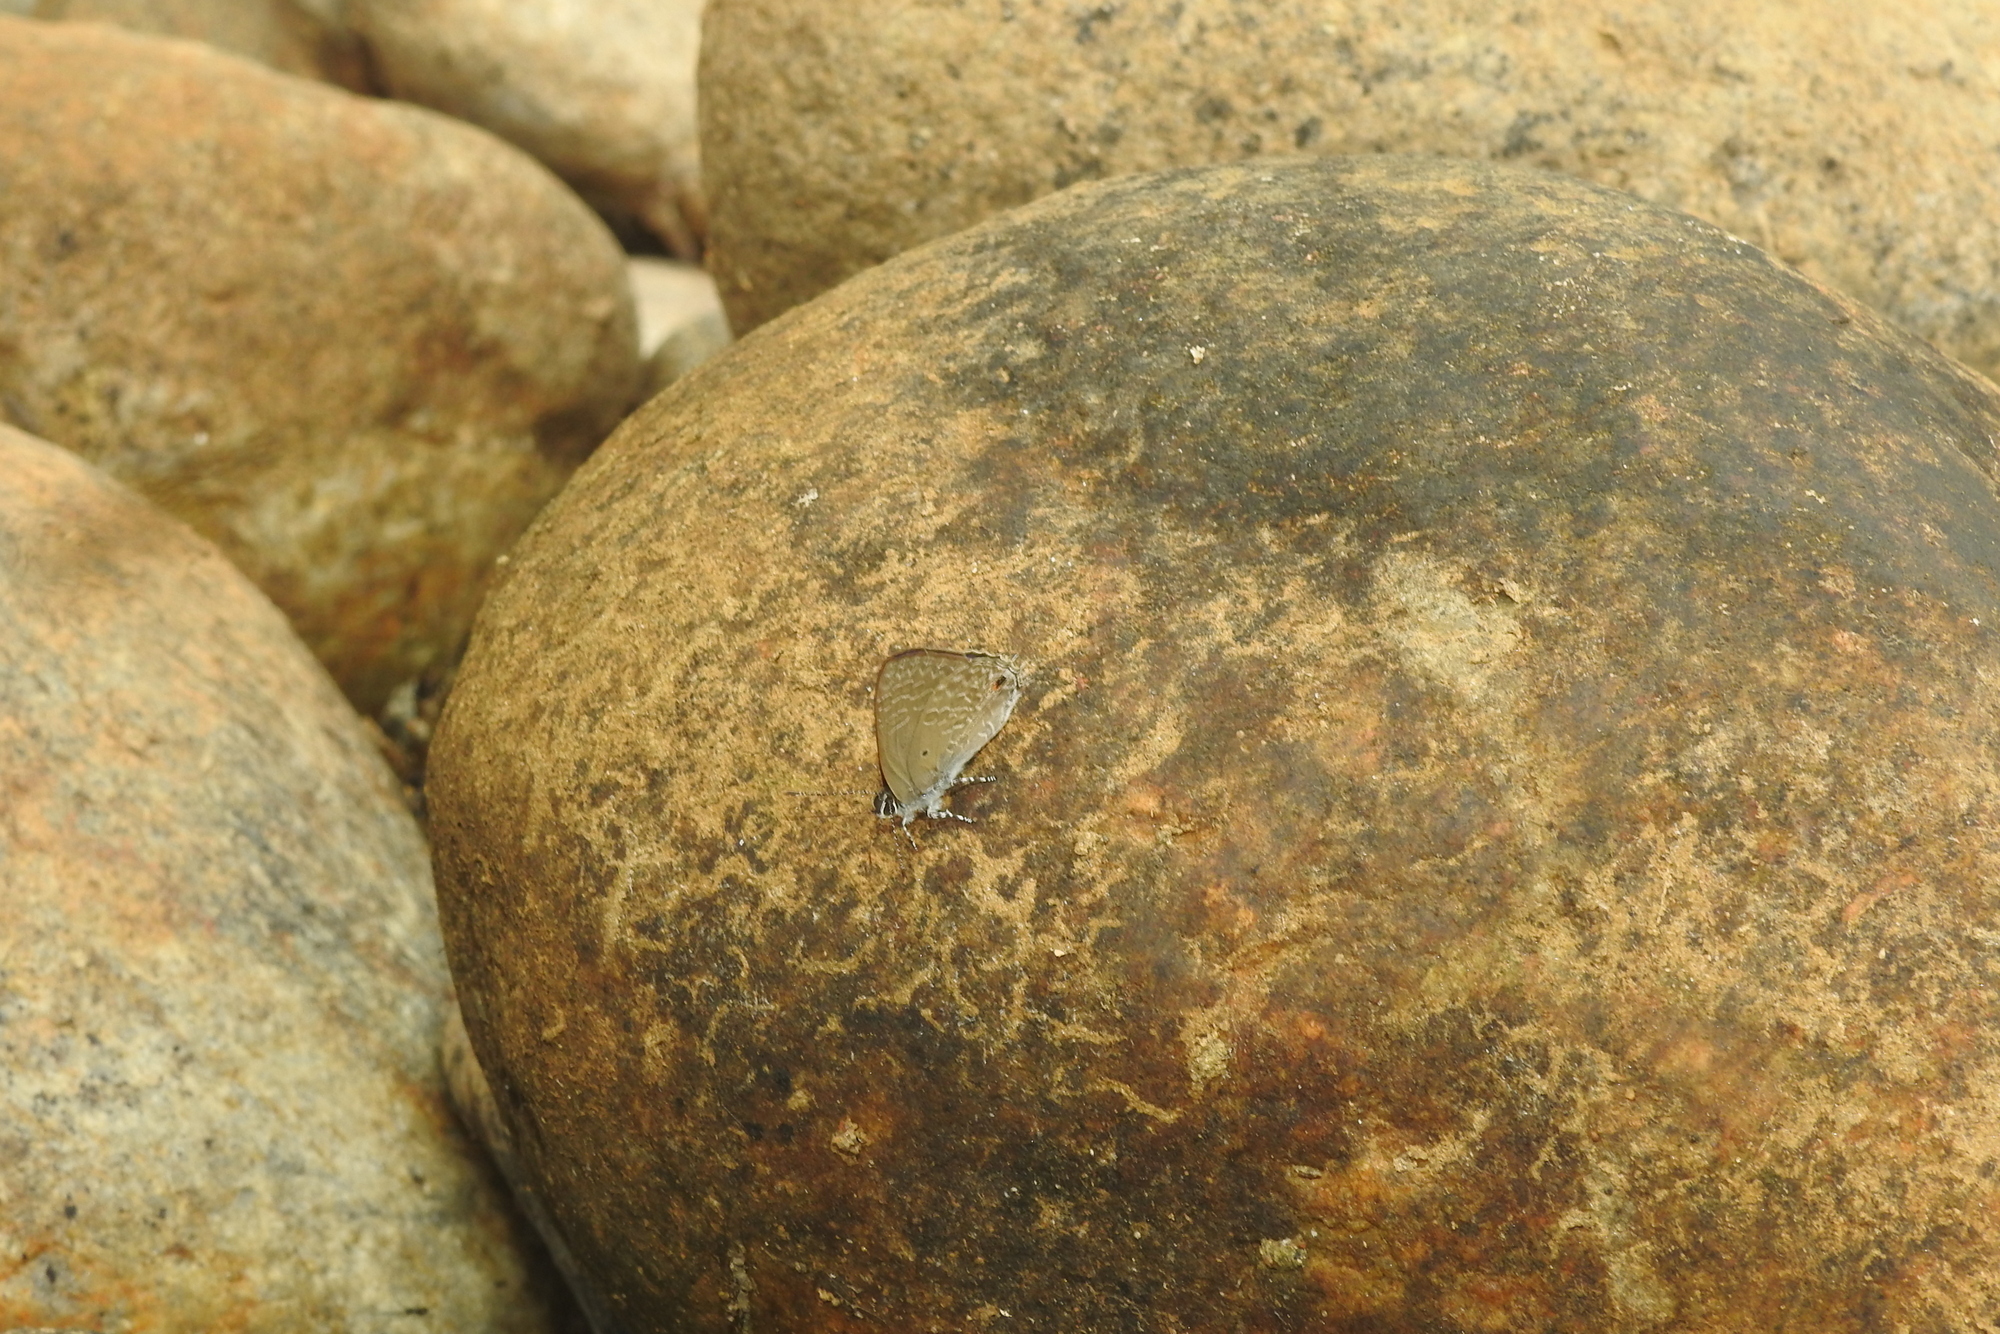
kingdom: Animalia
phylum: Arthropoda
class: Insecta
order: Lepidoptera
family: Lycaenidae
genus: Anthene
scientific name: Anthene lycaenina
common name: Pointed ciliate blue
